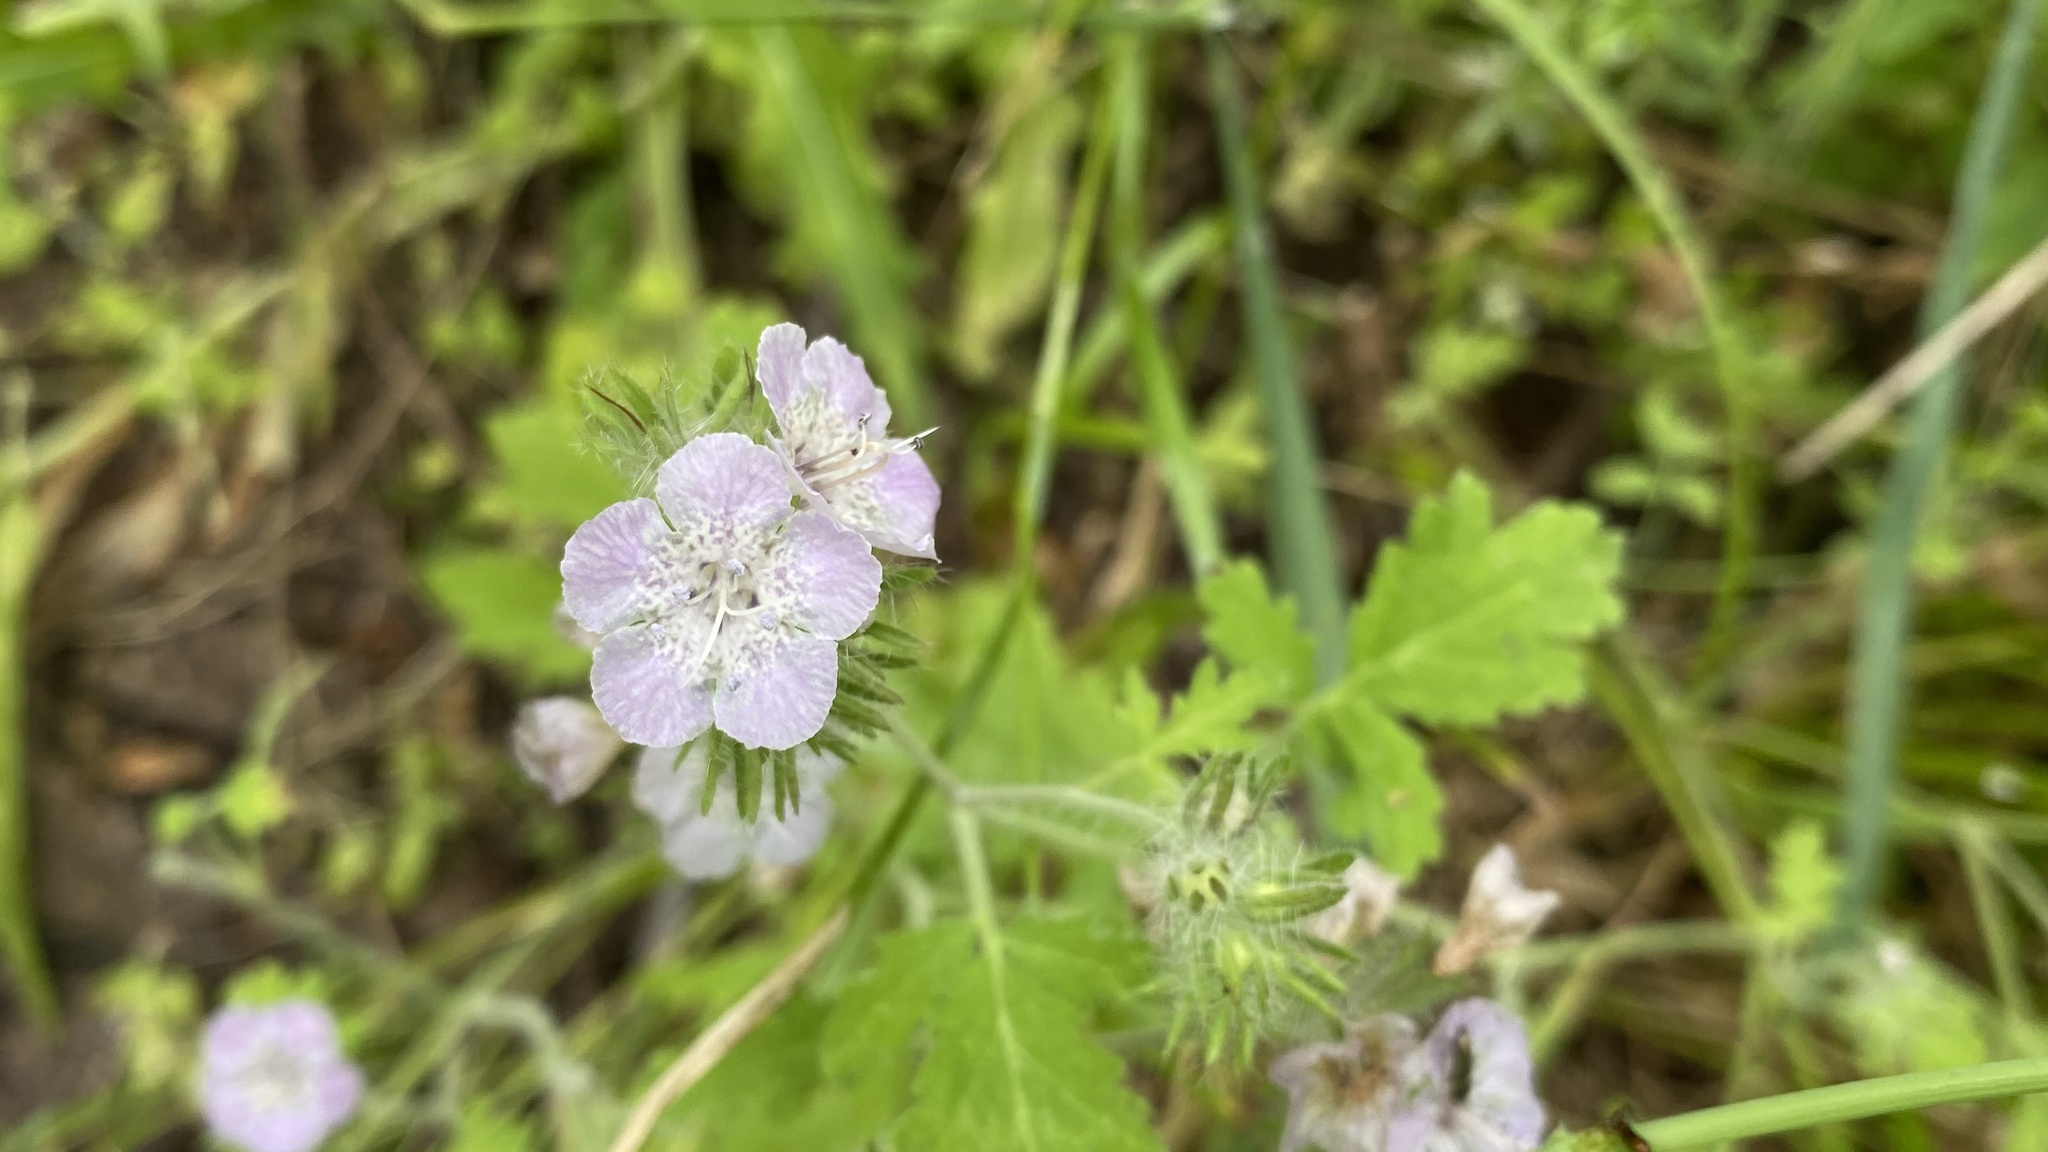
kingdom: Plantae
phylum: Tracheophyta
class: Magnoliopsida
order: Boraginales
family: Hydrophyllaceae
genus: Phacelia
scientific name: Phacelia cicutaria
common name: Caterpillar phacelia
